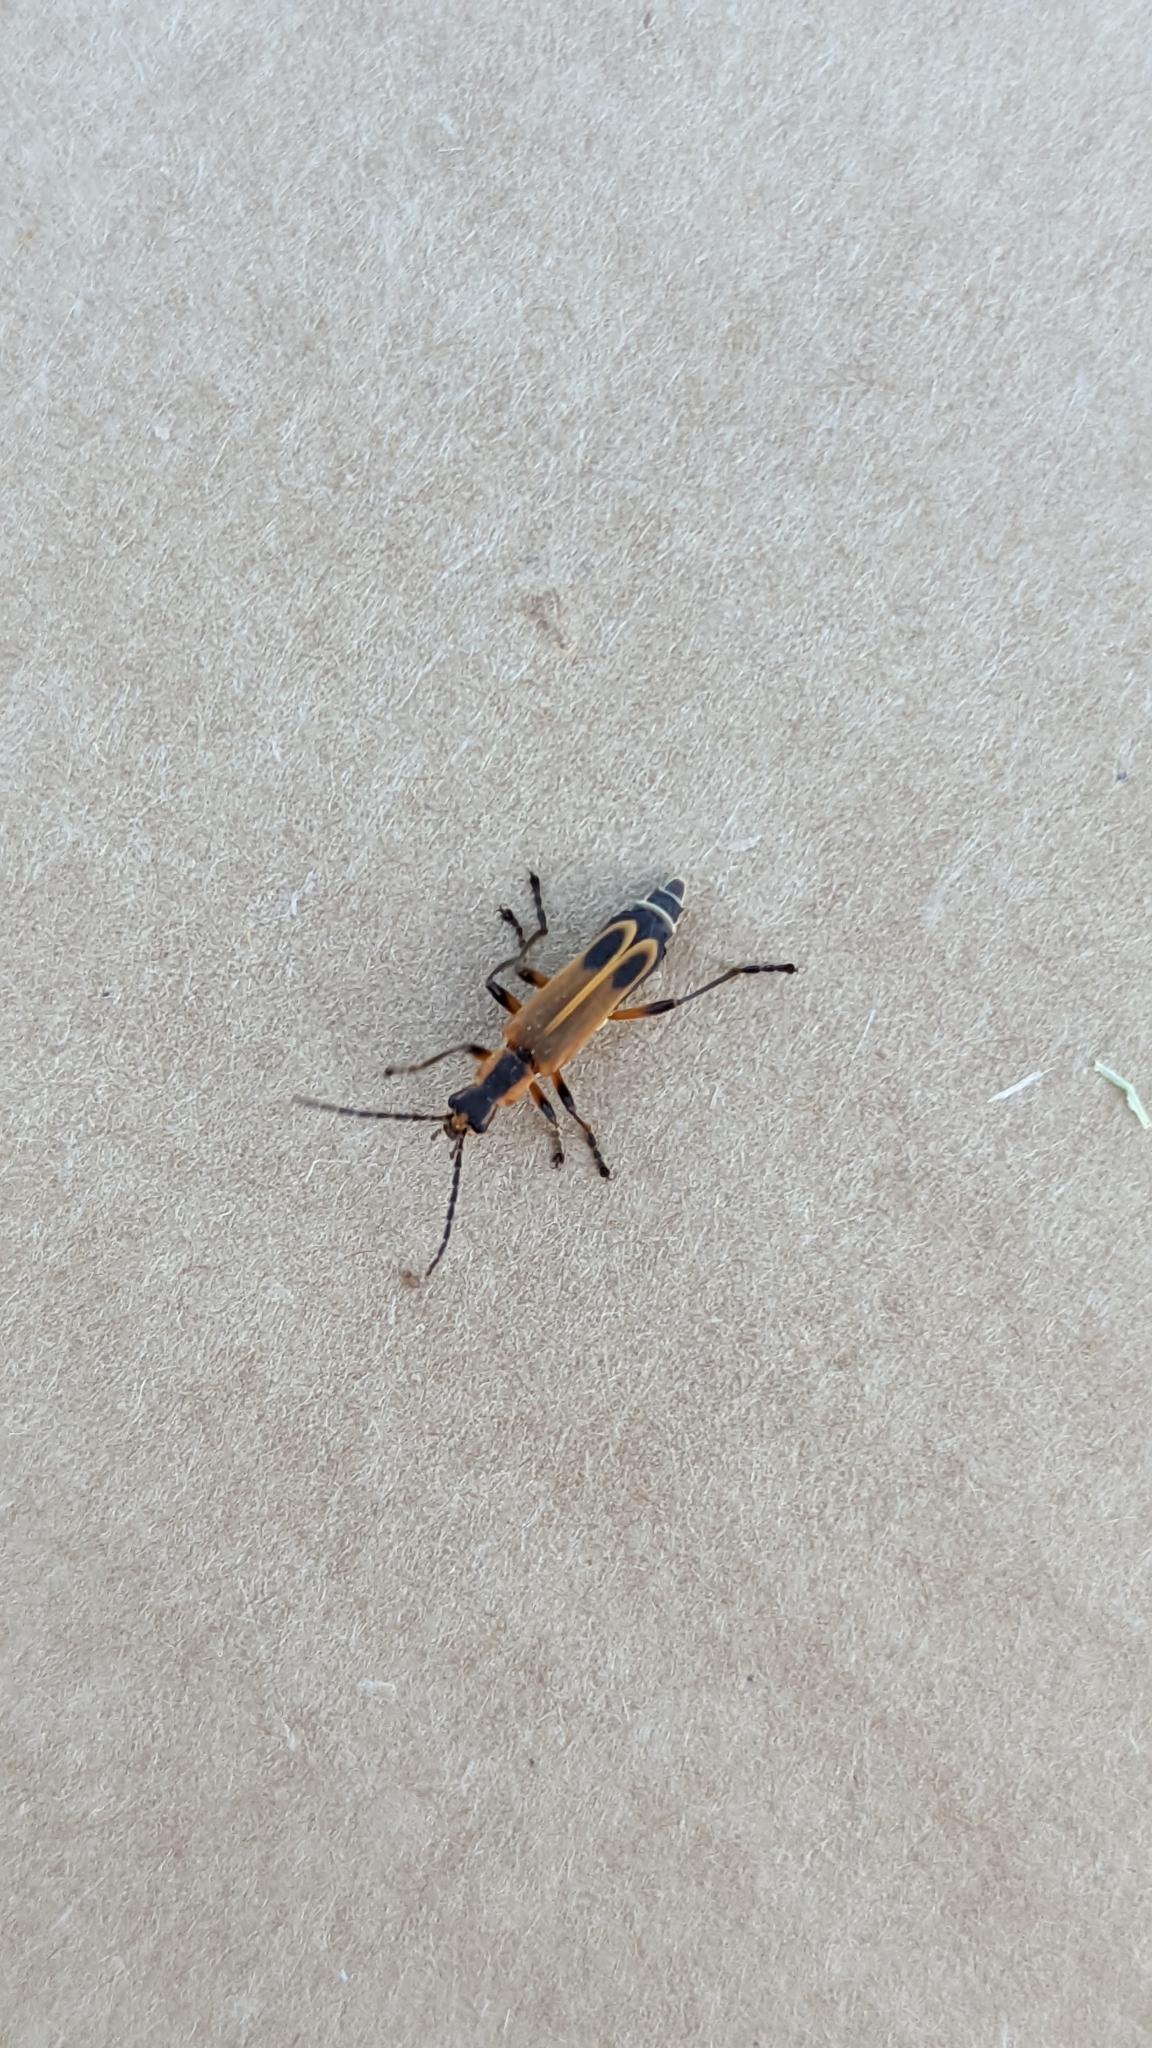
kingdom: Animalia
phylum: Arthropoda
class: Insecta
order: Coleoptera
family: Cantharidae
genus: Chauliognathus
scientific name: Chauliognathus marginatus
